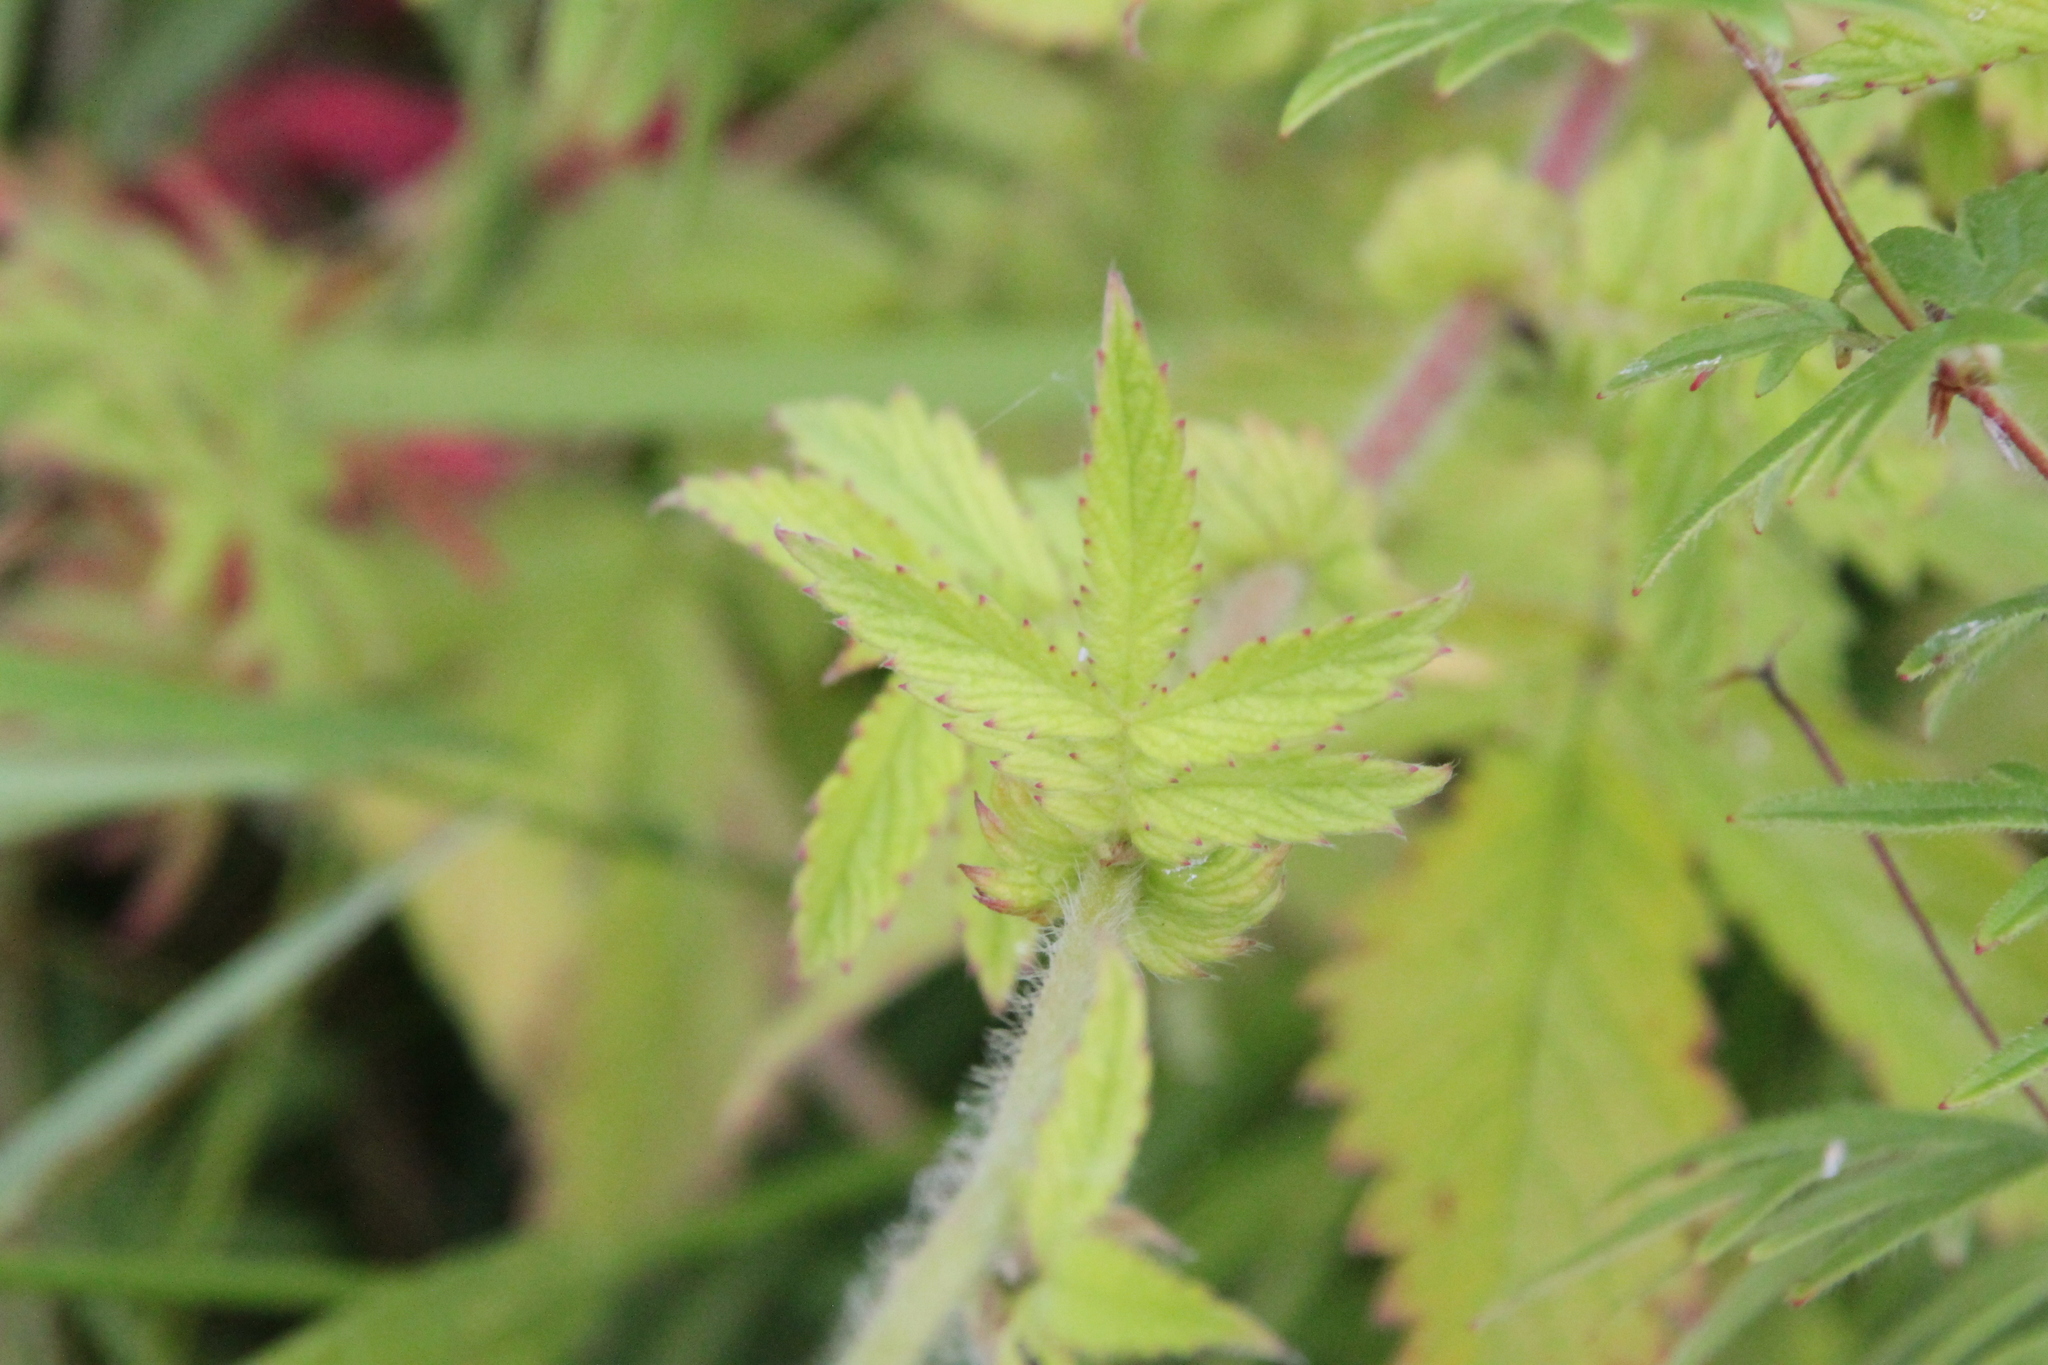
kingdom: Plantae
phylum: Tracheophyta
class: Magnoliopsida
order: Rosales
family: Rosaceae
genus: Agrimonia
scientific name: Agrimonia eupatoria
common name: Agrimony
